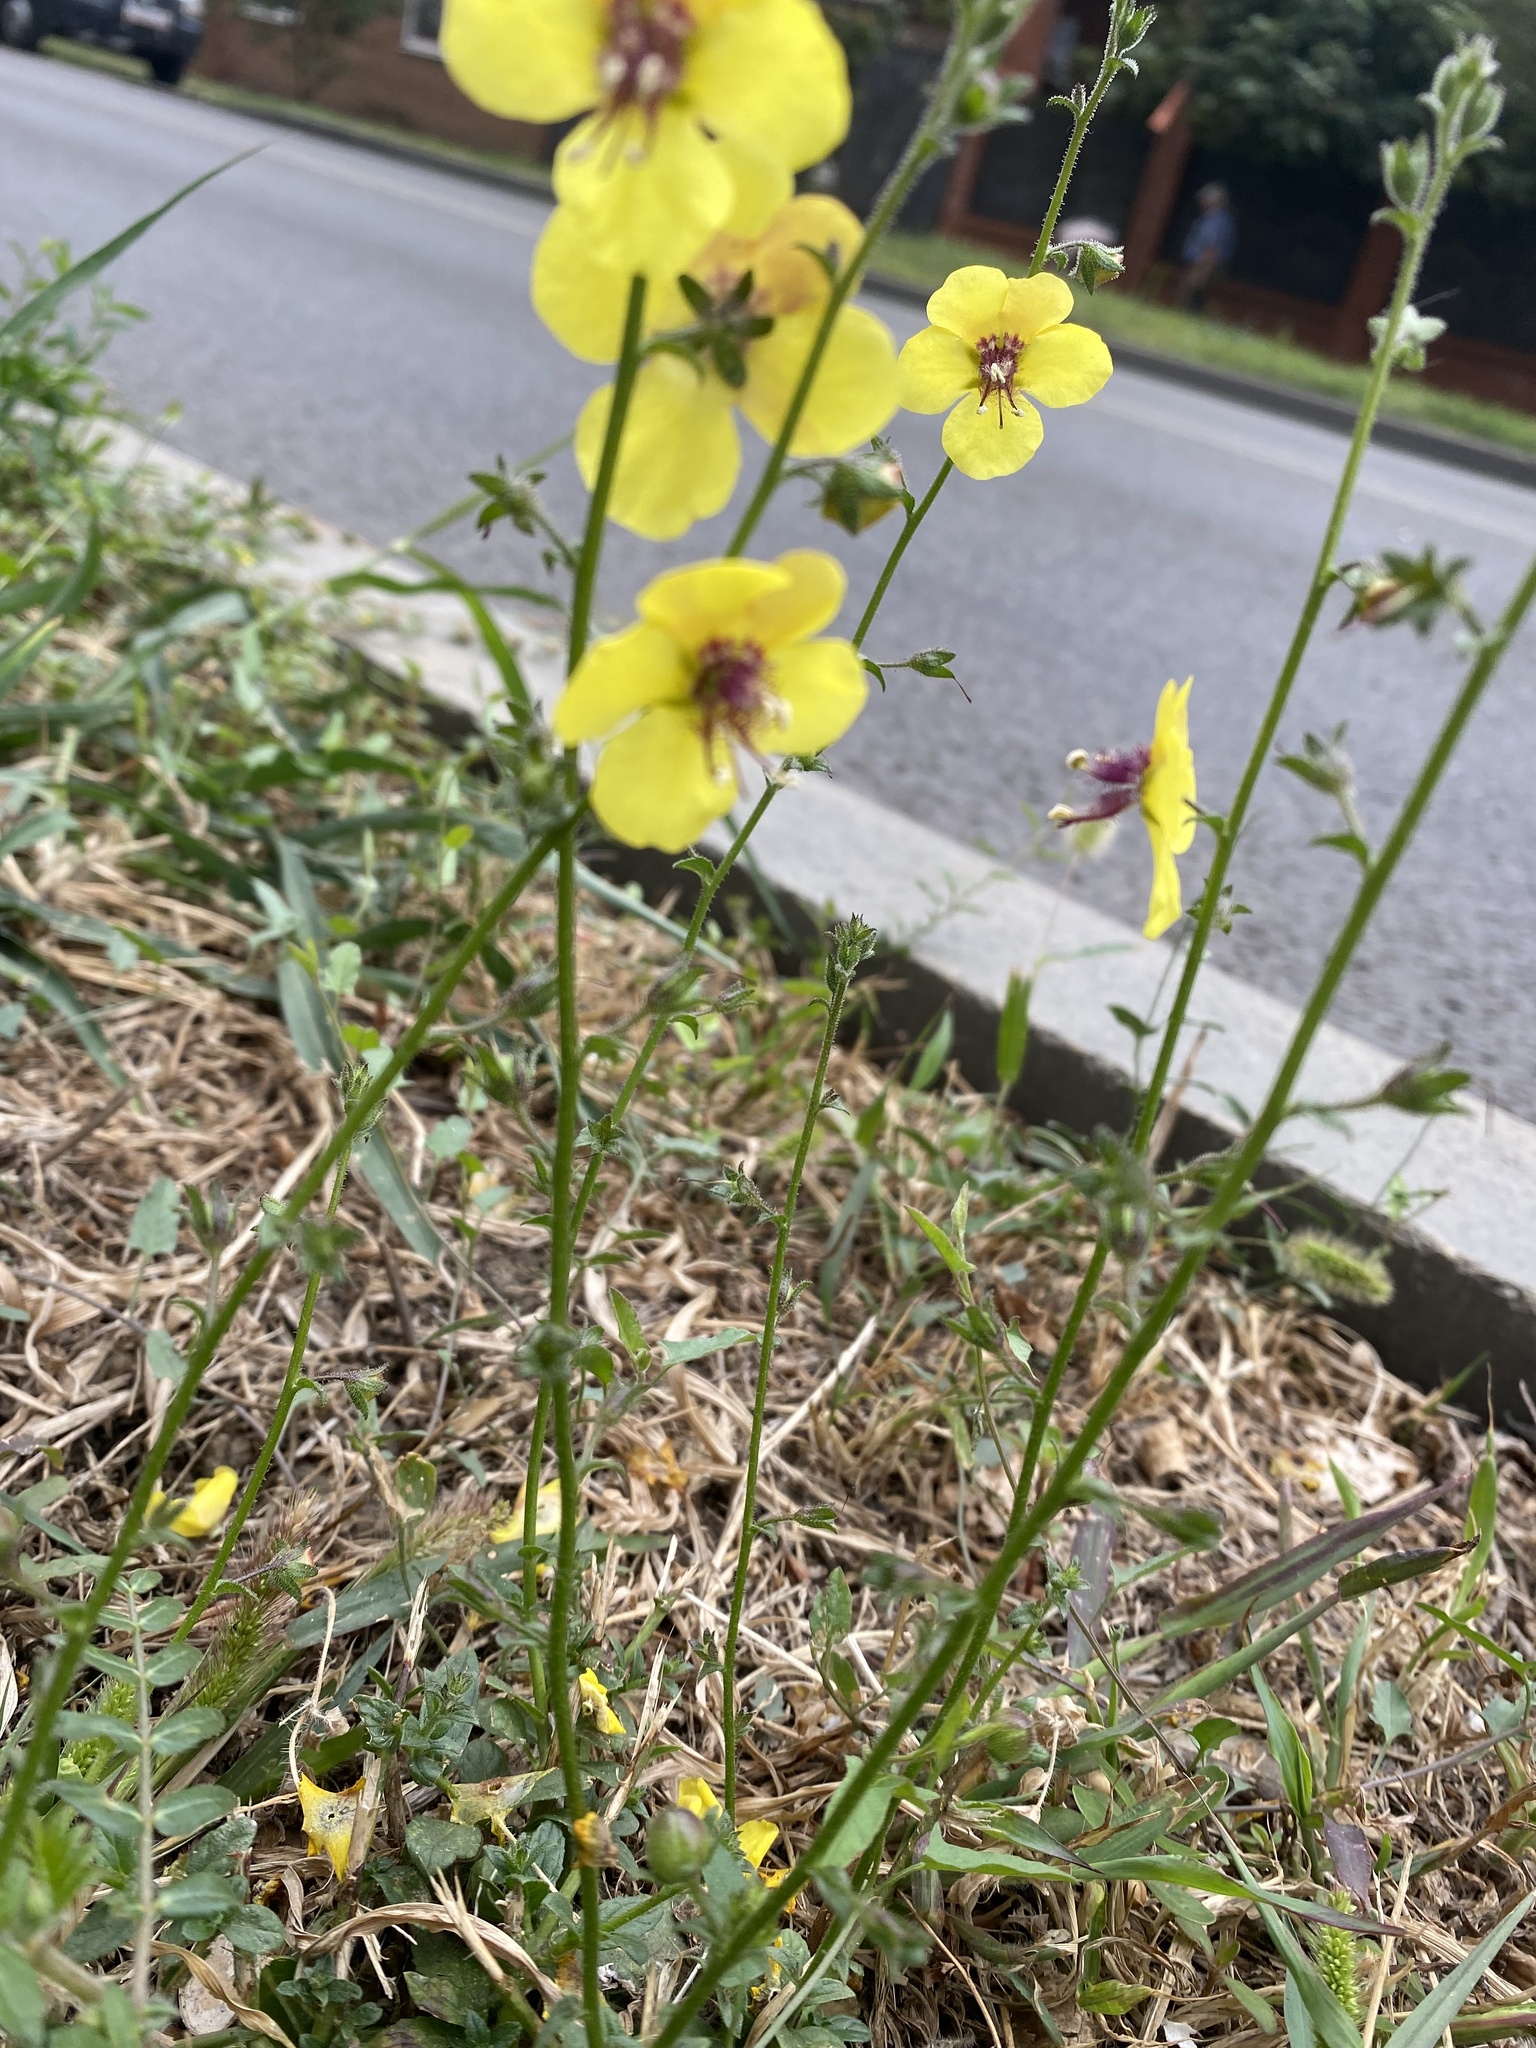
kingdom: Plantae
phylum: Tracheophyta
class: Magnoliopsida
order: Lamiales
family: Scrophulariaceae
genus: Verbascum
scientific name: Verbascum blattaria
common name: Moth mullein
